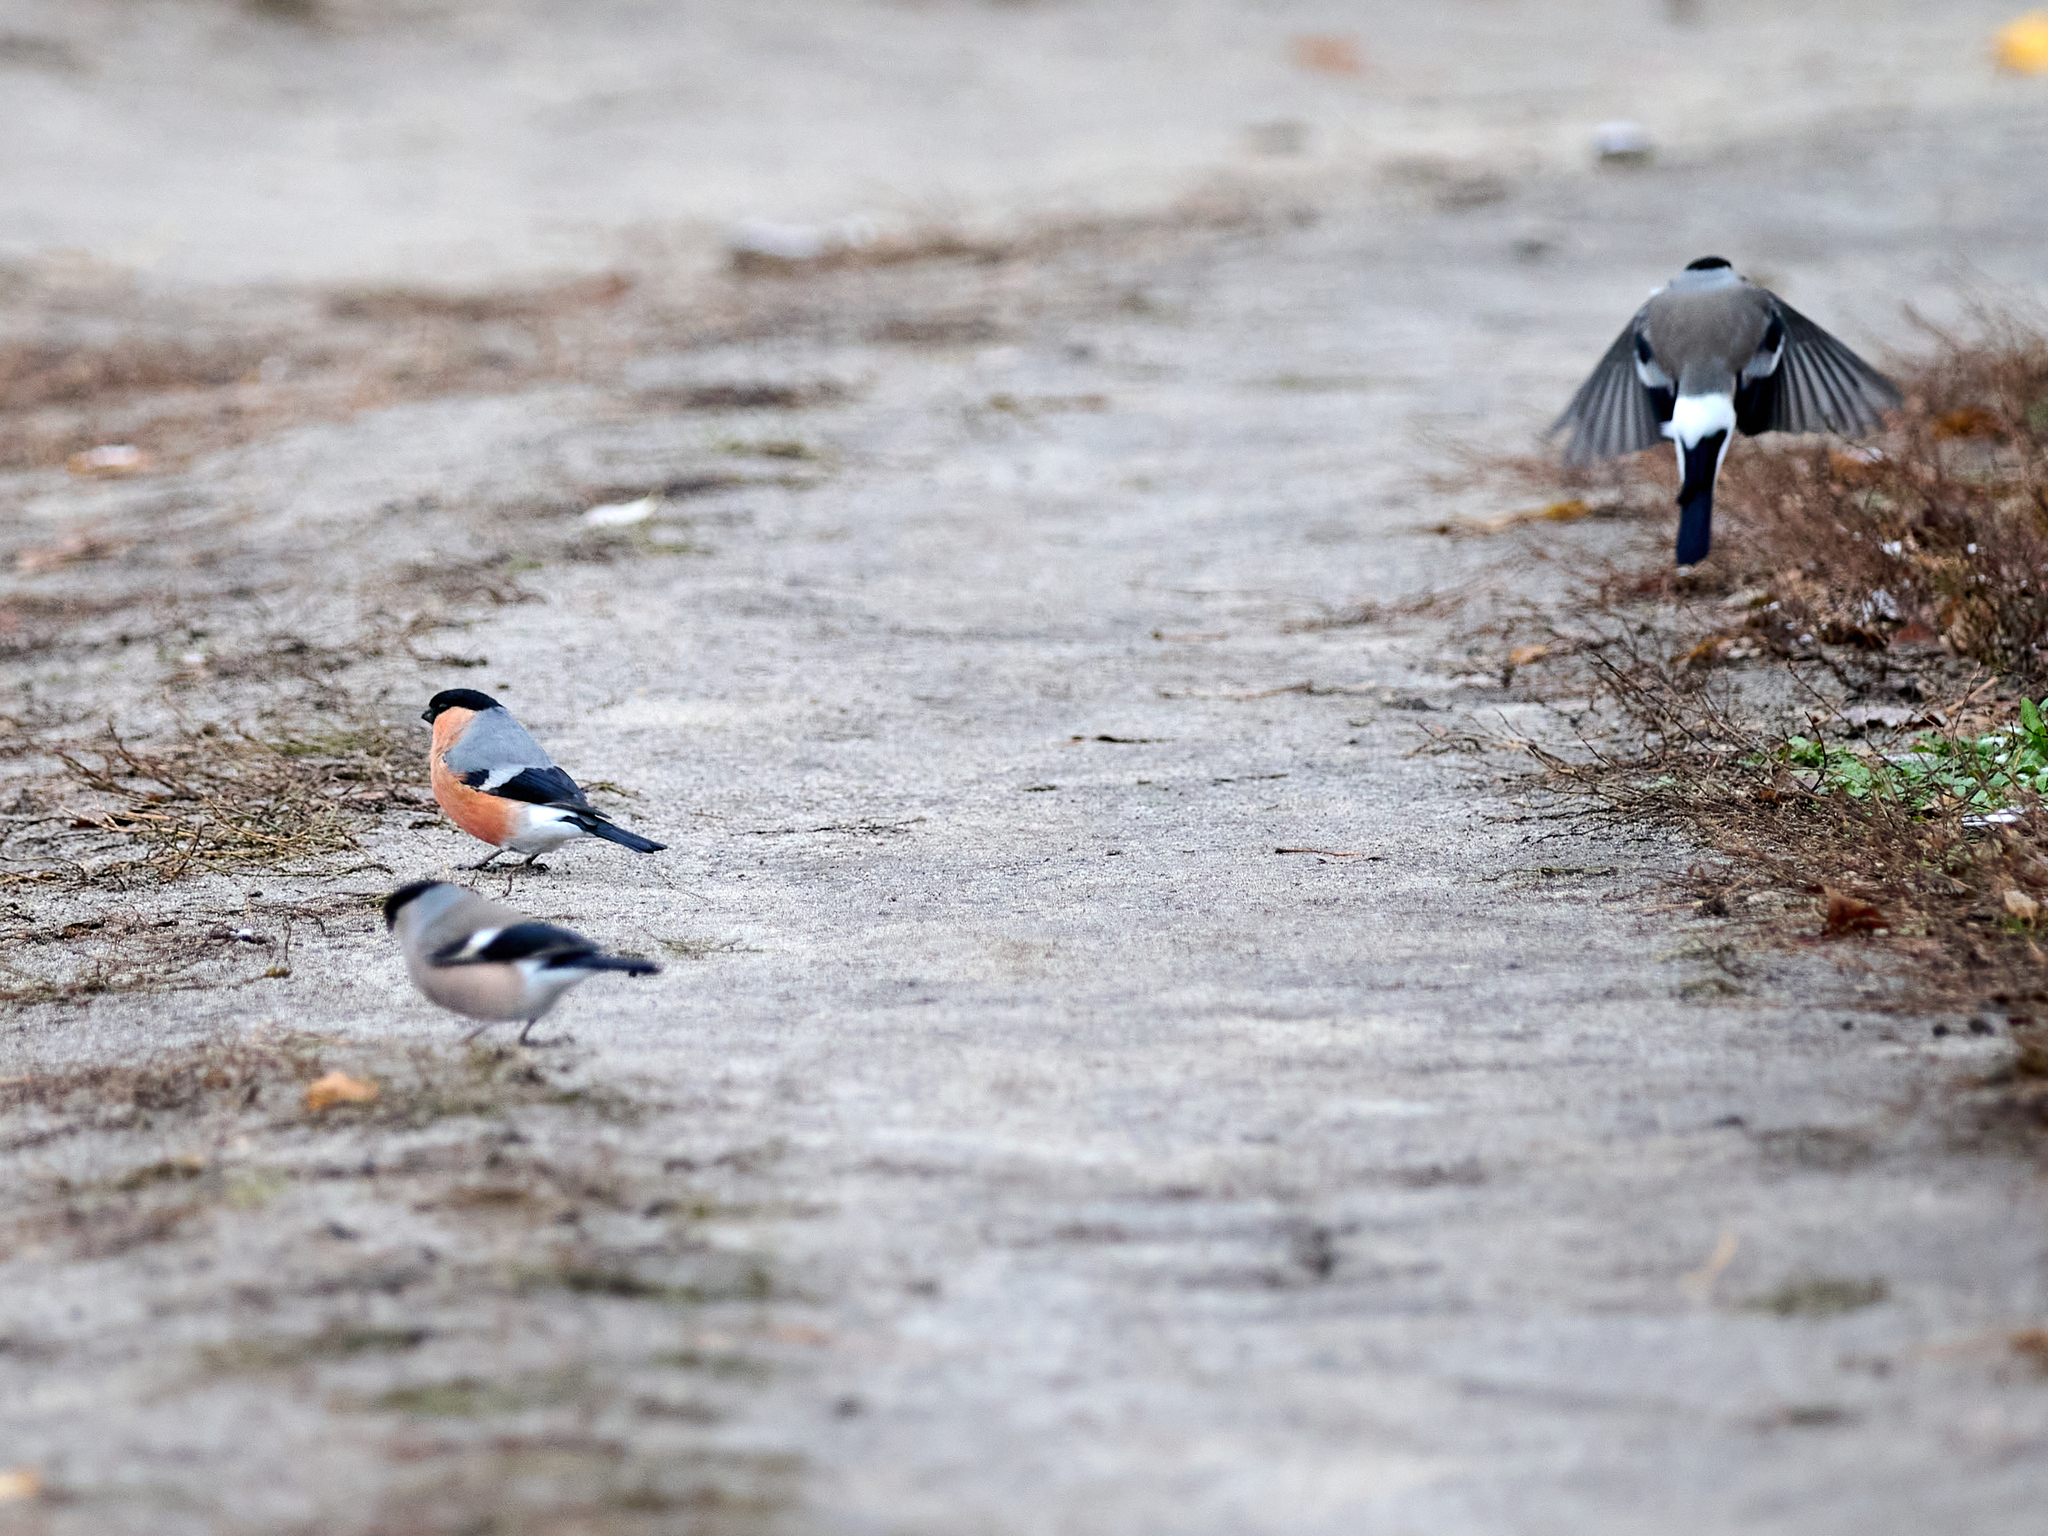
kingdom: Animalia
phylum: Chordata
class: Aves
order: Passeriformes
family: Fringillidae
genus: Pyrrhula
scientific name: Pyrrhula pyrrhula
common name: Eurasian bullfinch
